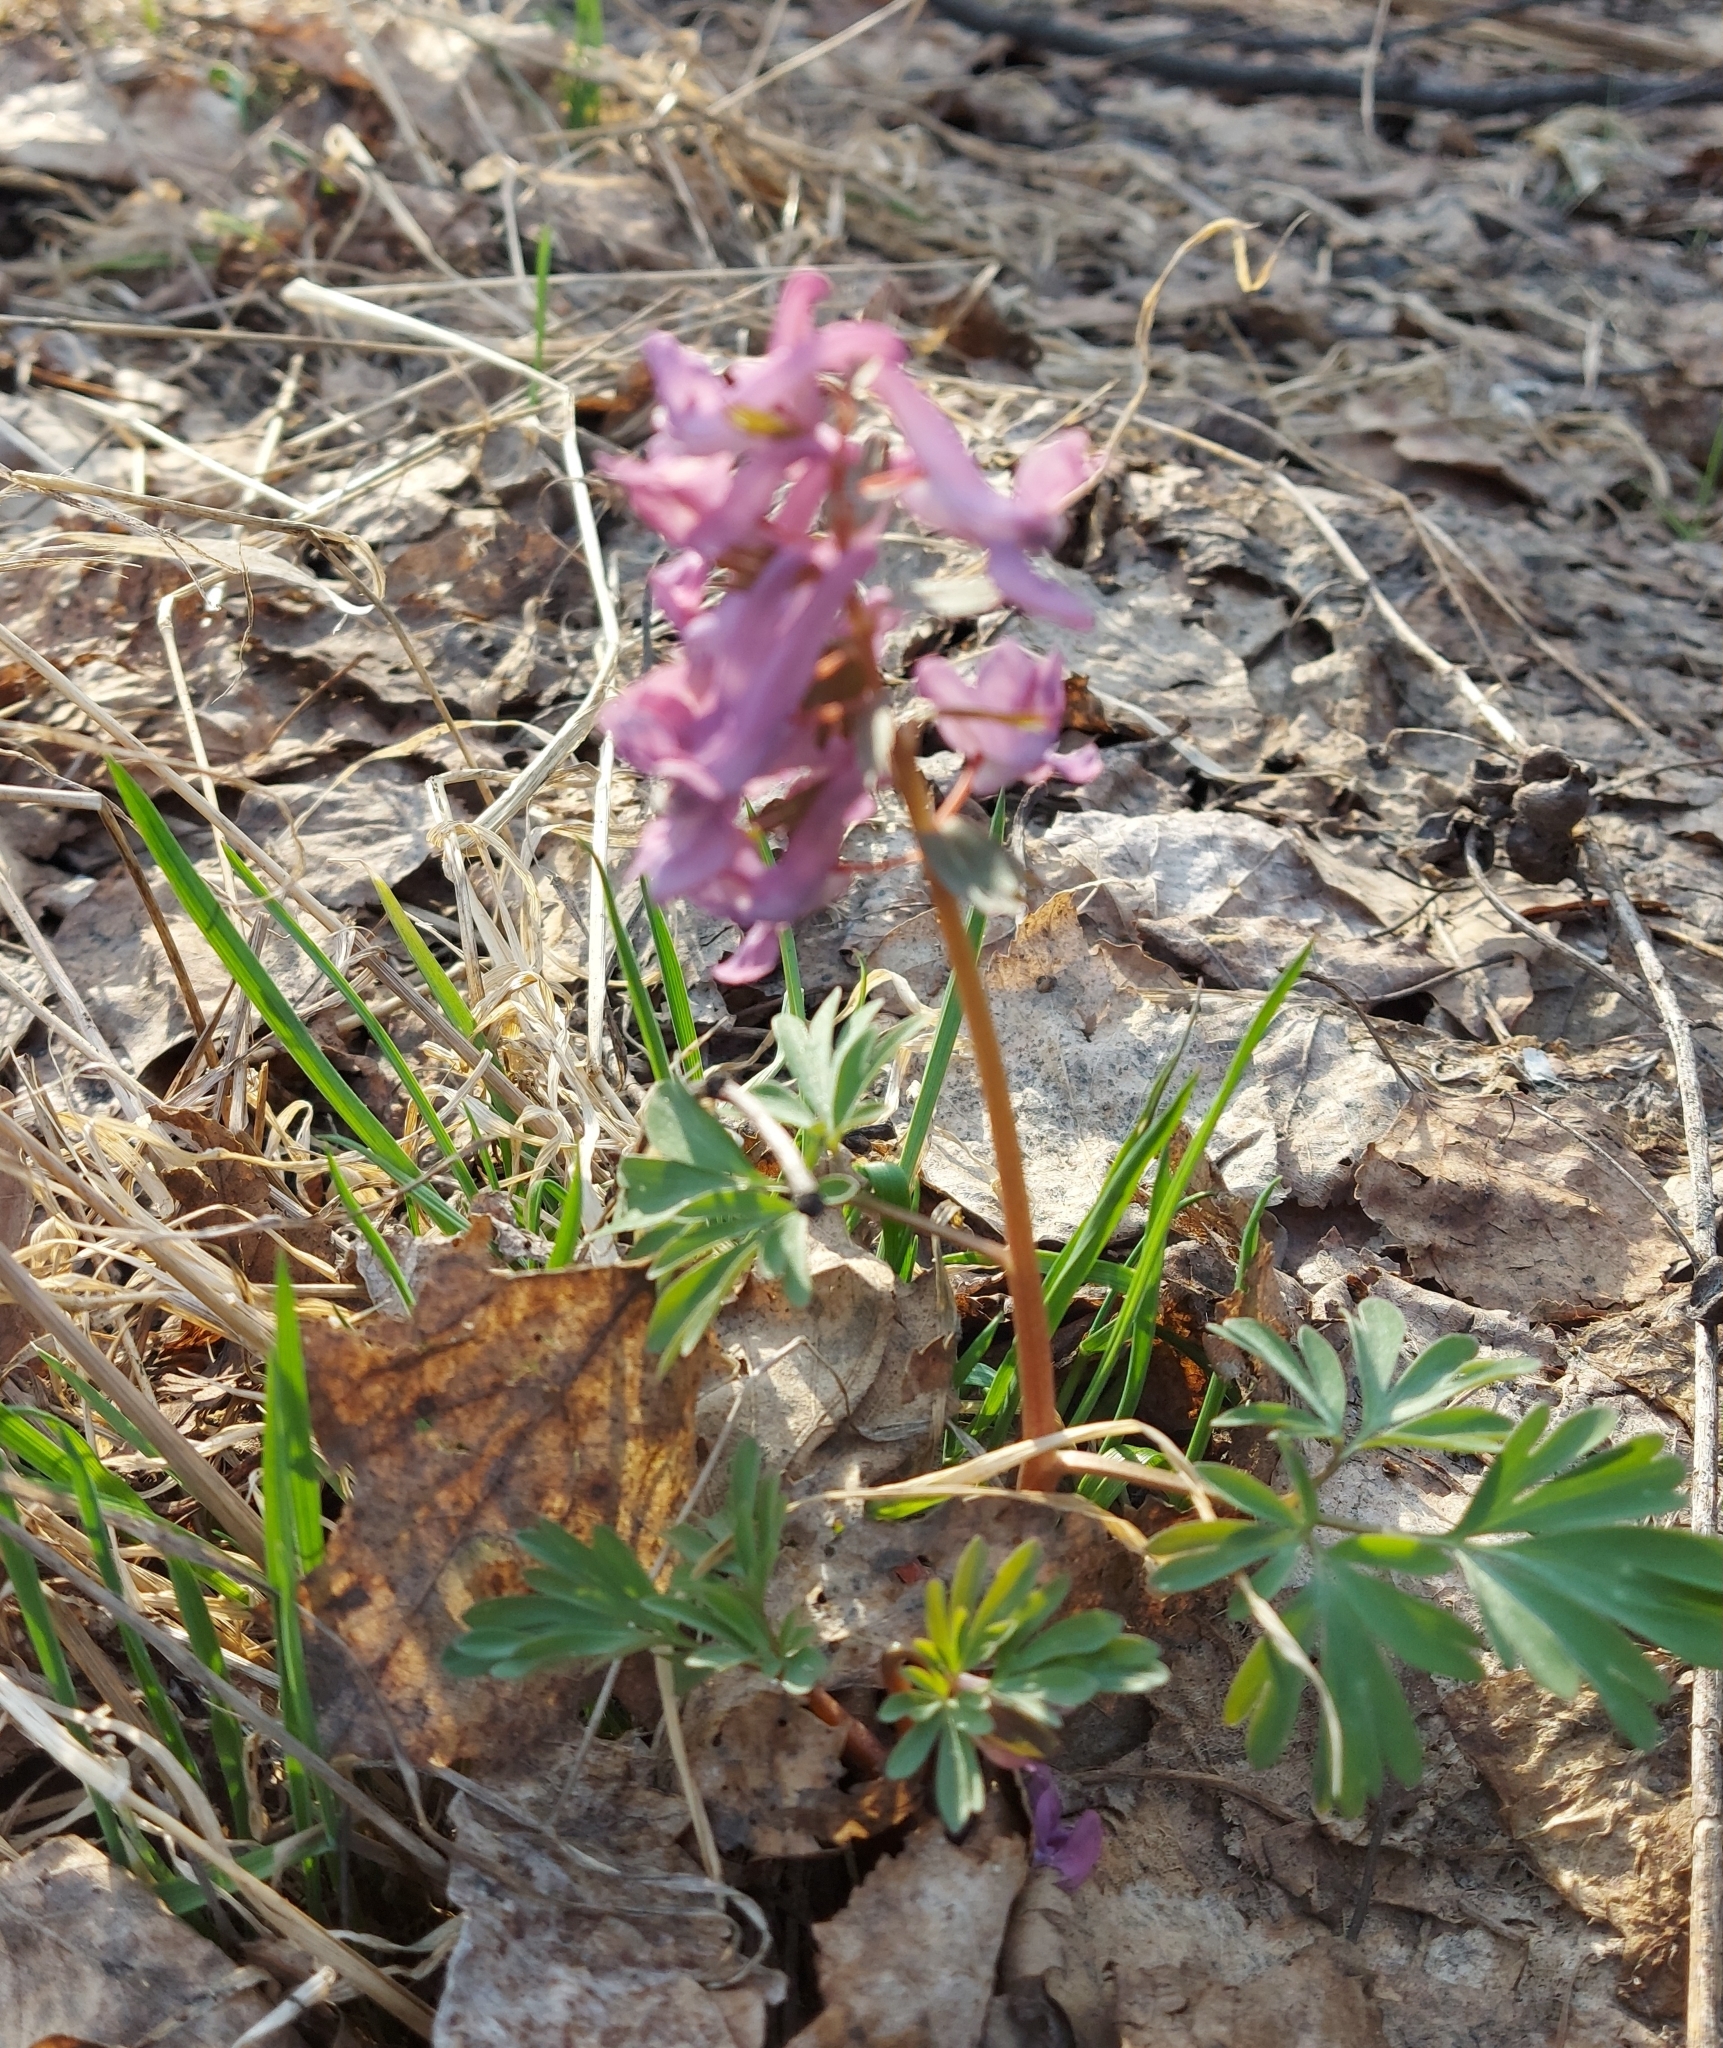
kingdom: Plantae
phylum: Tracheophyta
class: Magnoliopsida
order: Ranunculales
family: Papaveraceae
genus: Corydalis
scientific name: Corydalis solida
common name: Bird-in-a-bush
